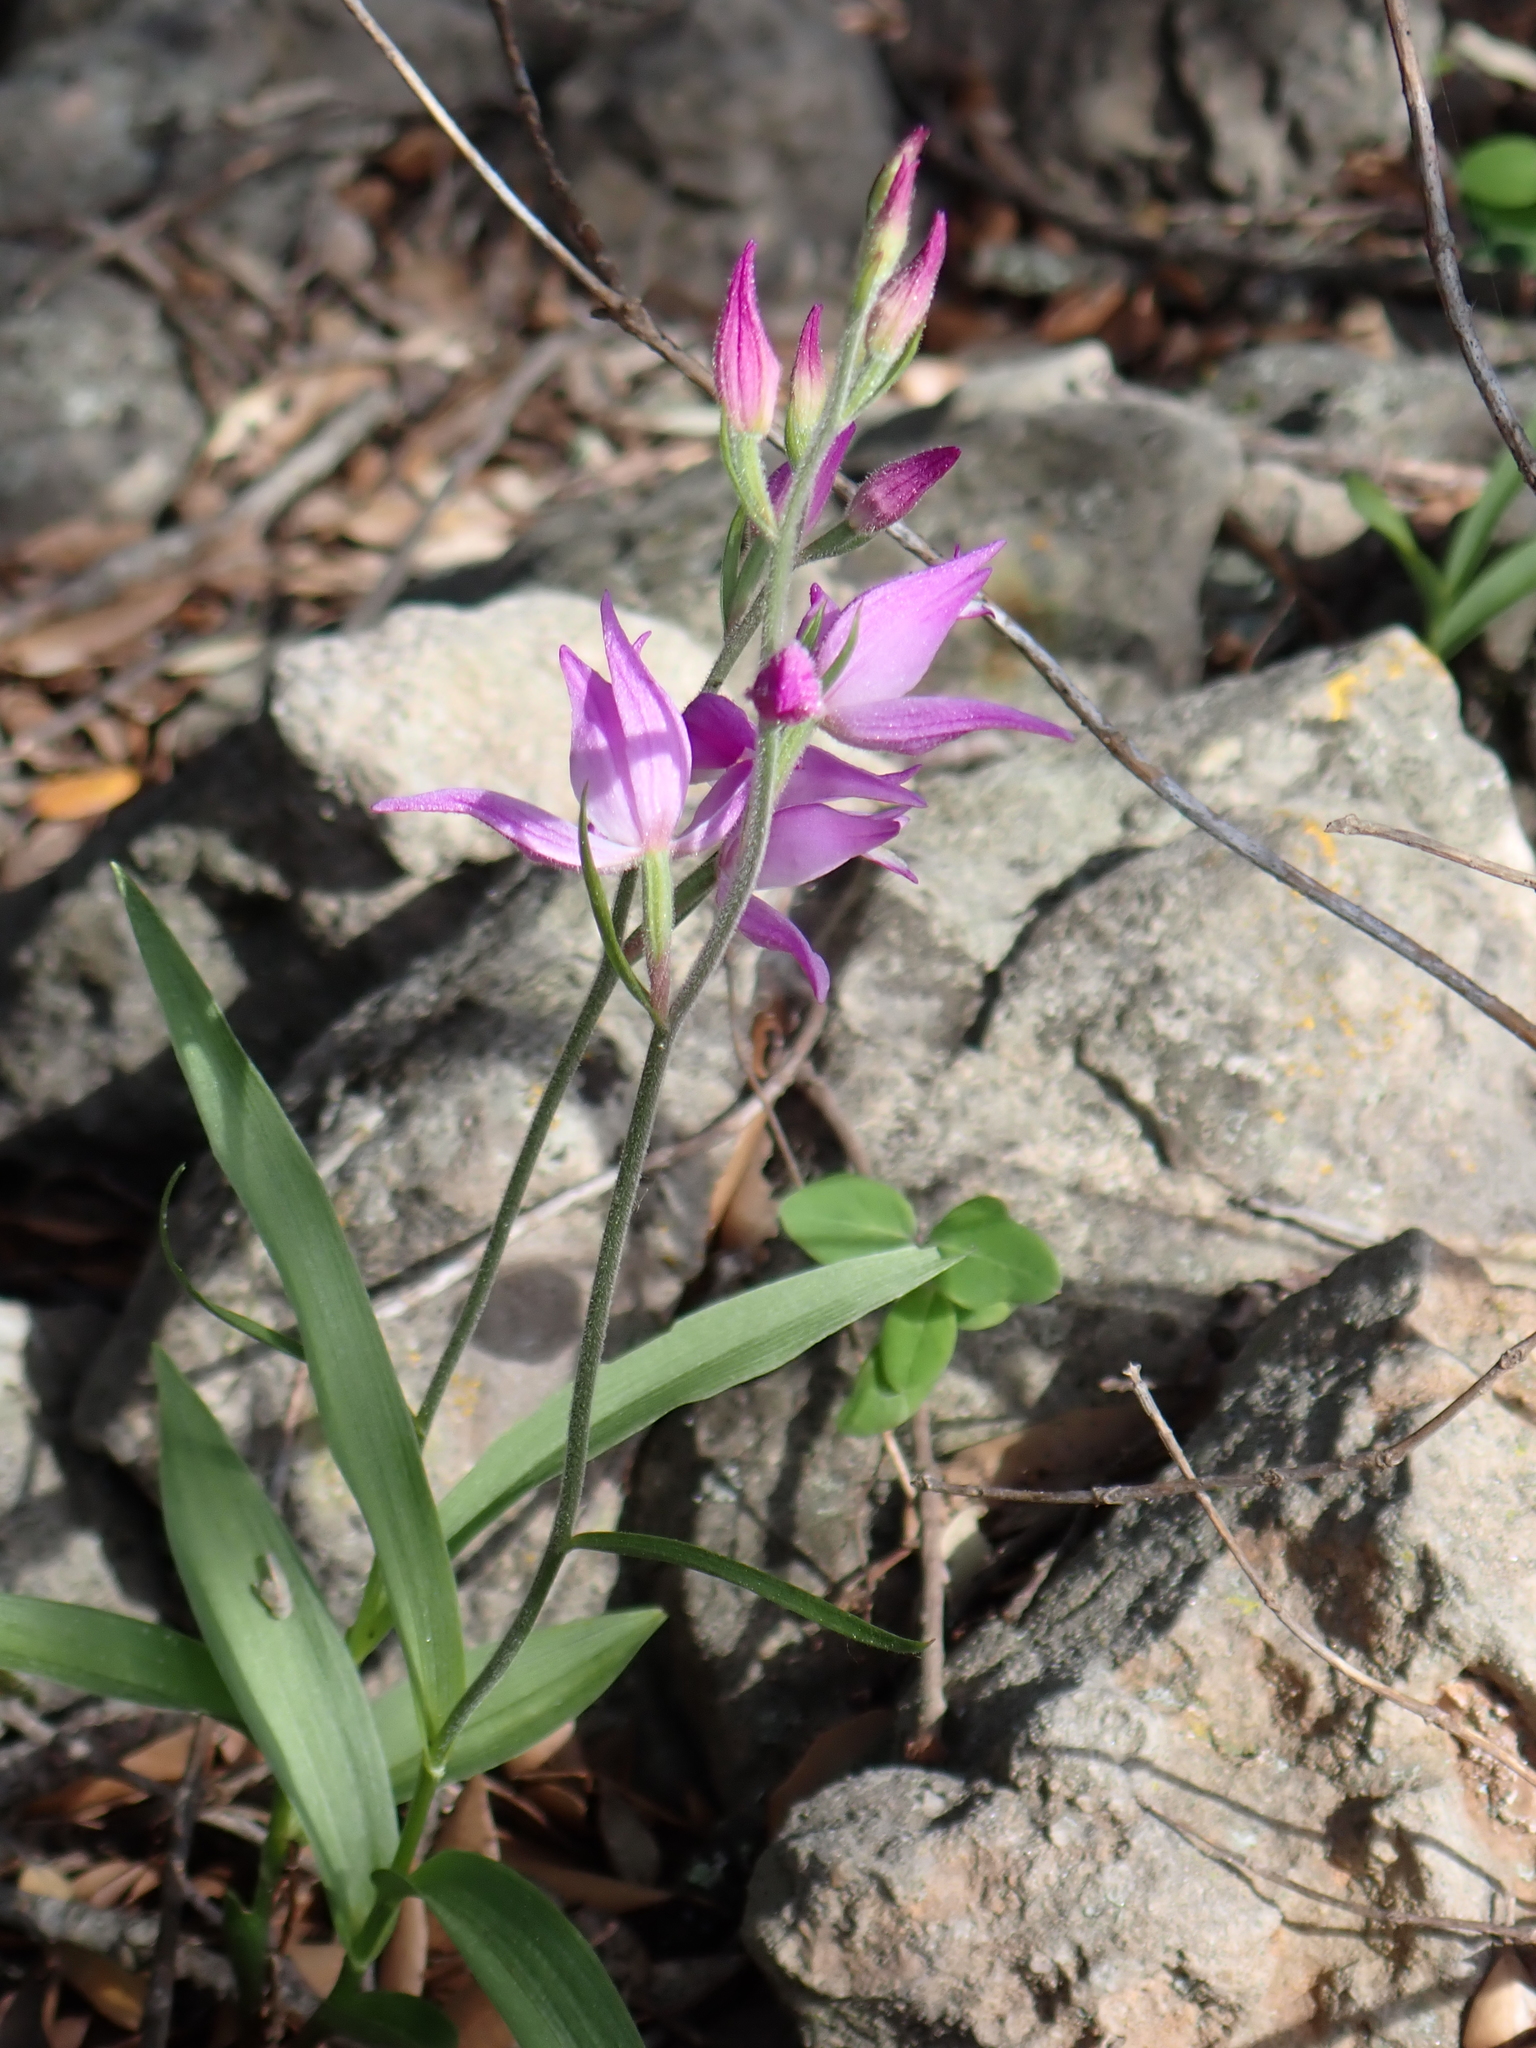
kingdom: Plantae
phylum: Tracheophyta
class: Liliopsida
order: Asparagales
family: Orchidaceae
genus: Cephalanthera
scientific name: Cephalanthera rubra
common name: Red helleborine
